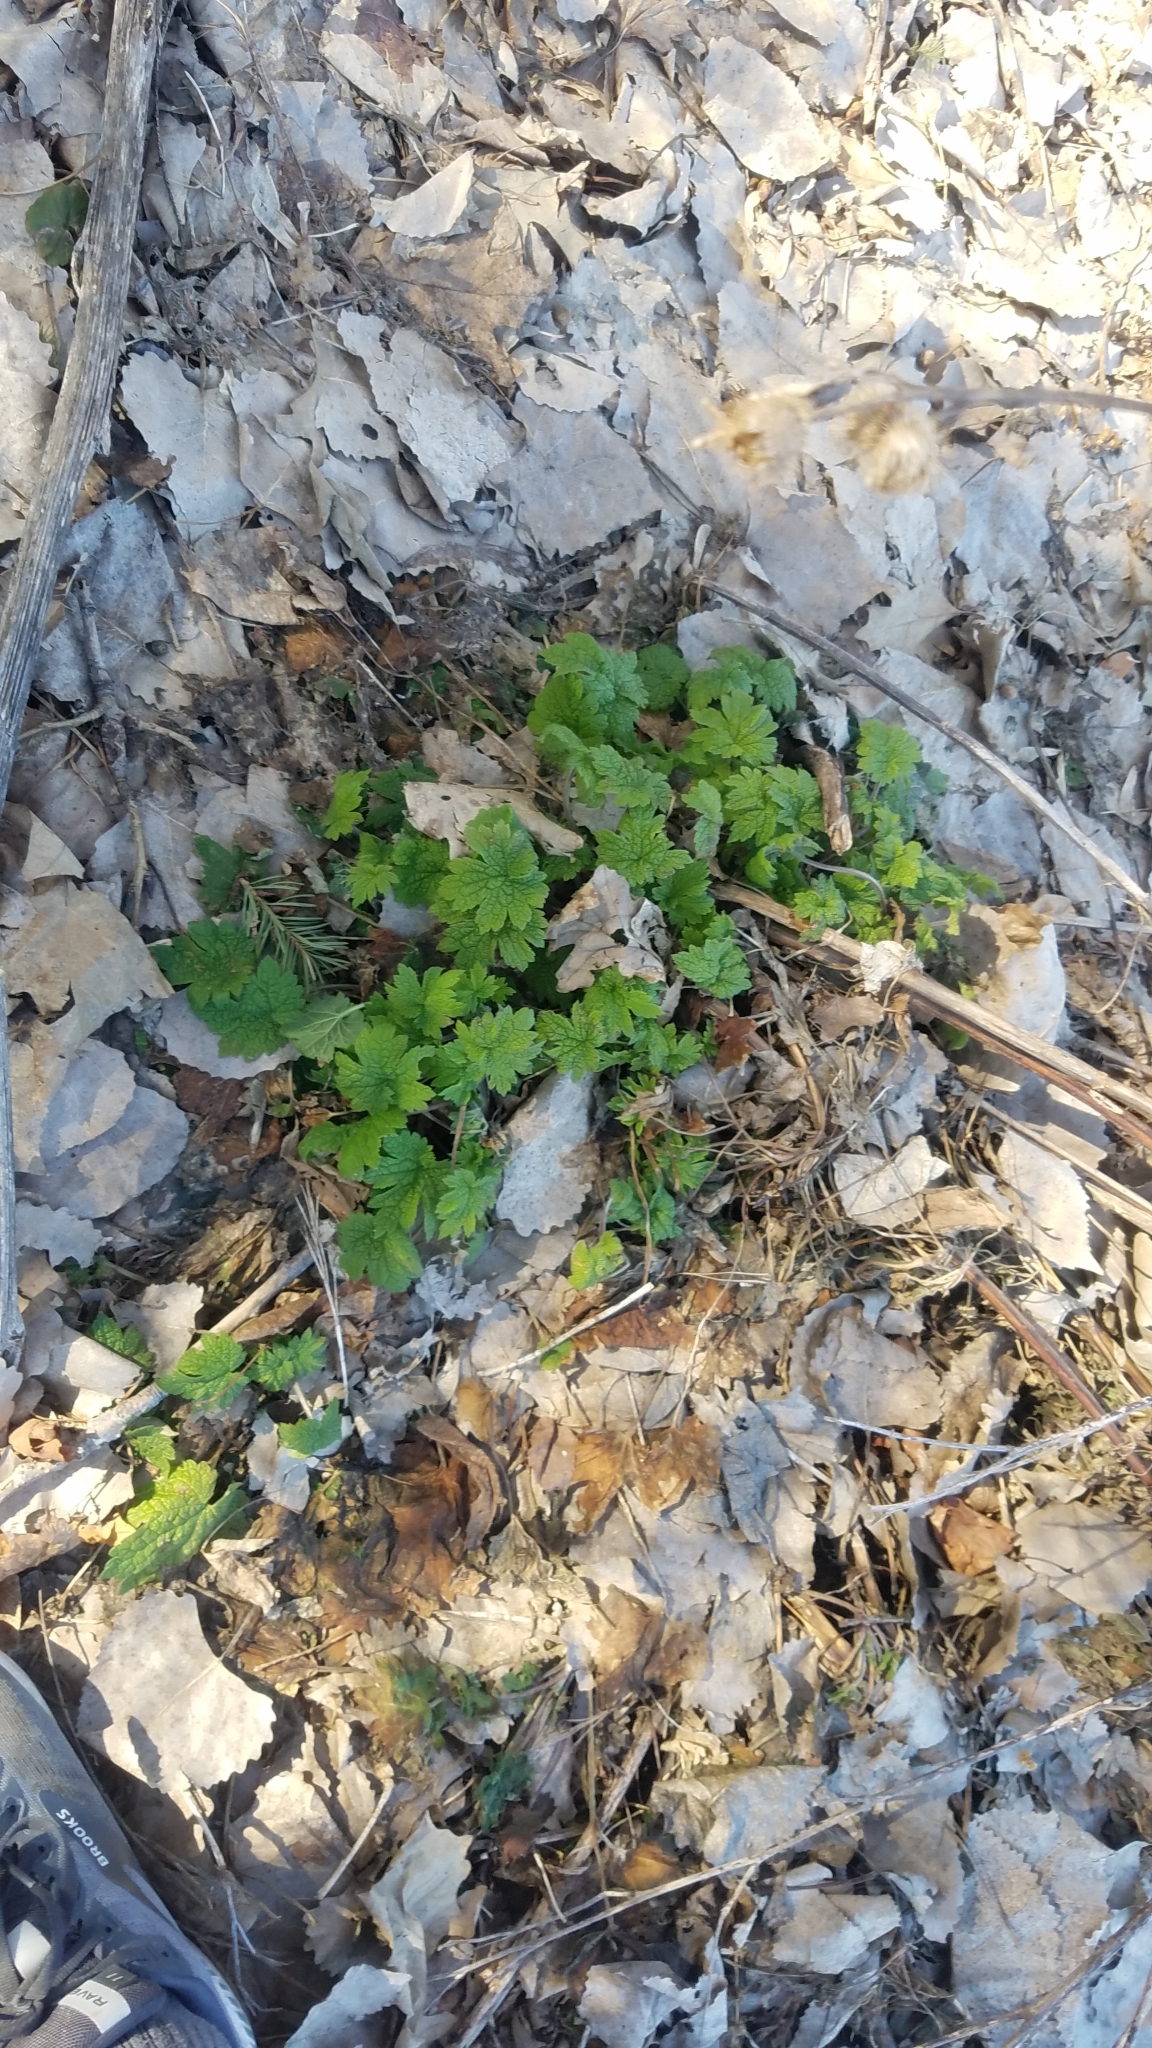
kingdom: Plantae
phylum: Tracheophyta
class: Magnoliopsida
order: Lamiales
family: Lamiaceae
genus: Leonurus
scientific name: Leonurus cardiaca
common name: Motherwort
